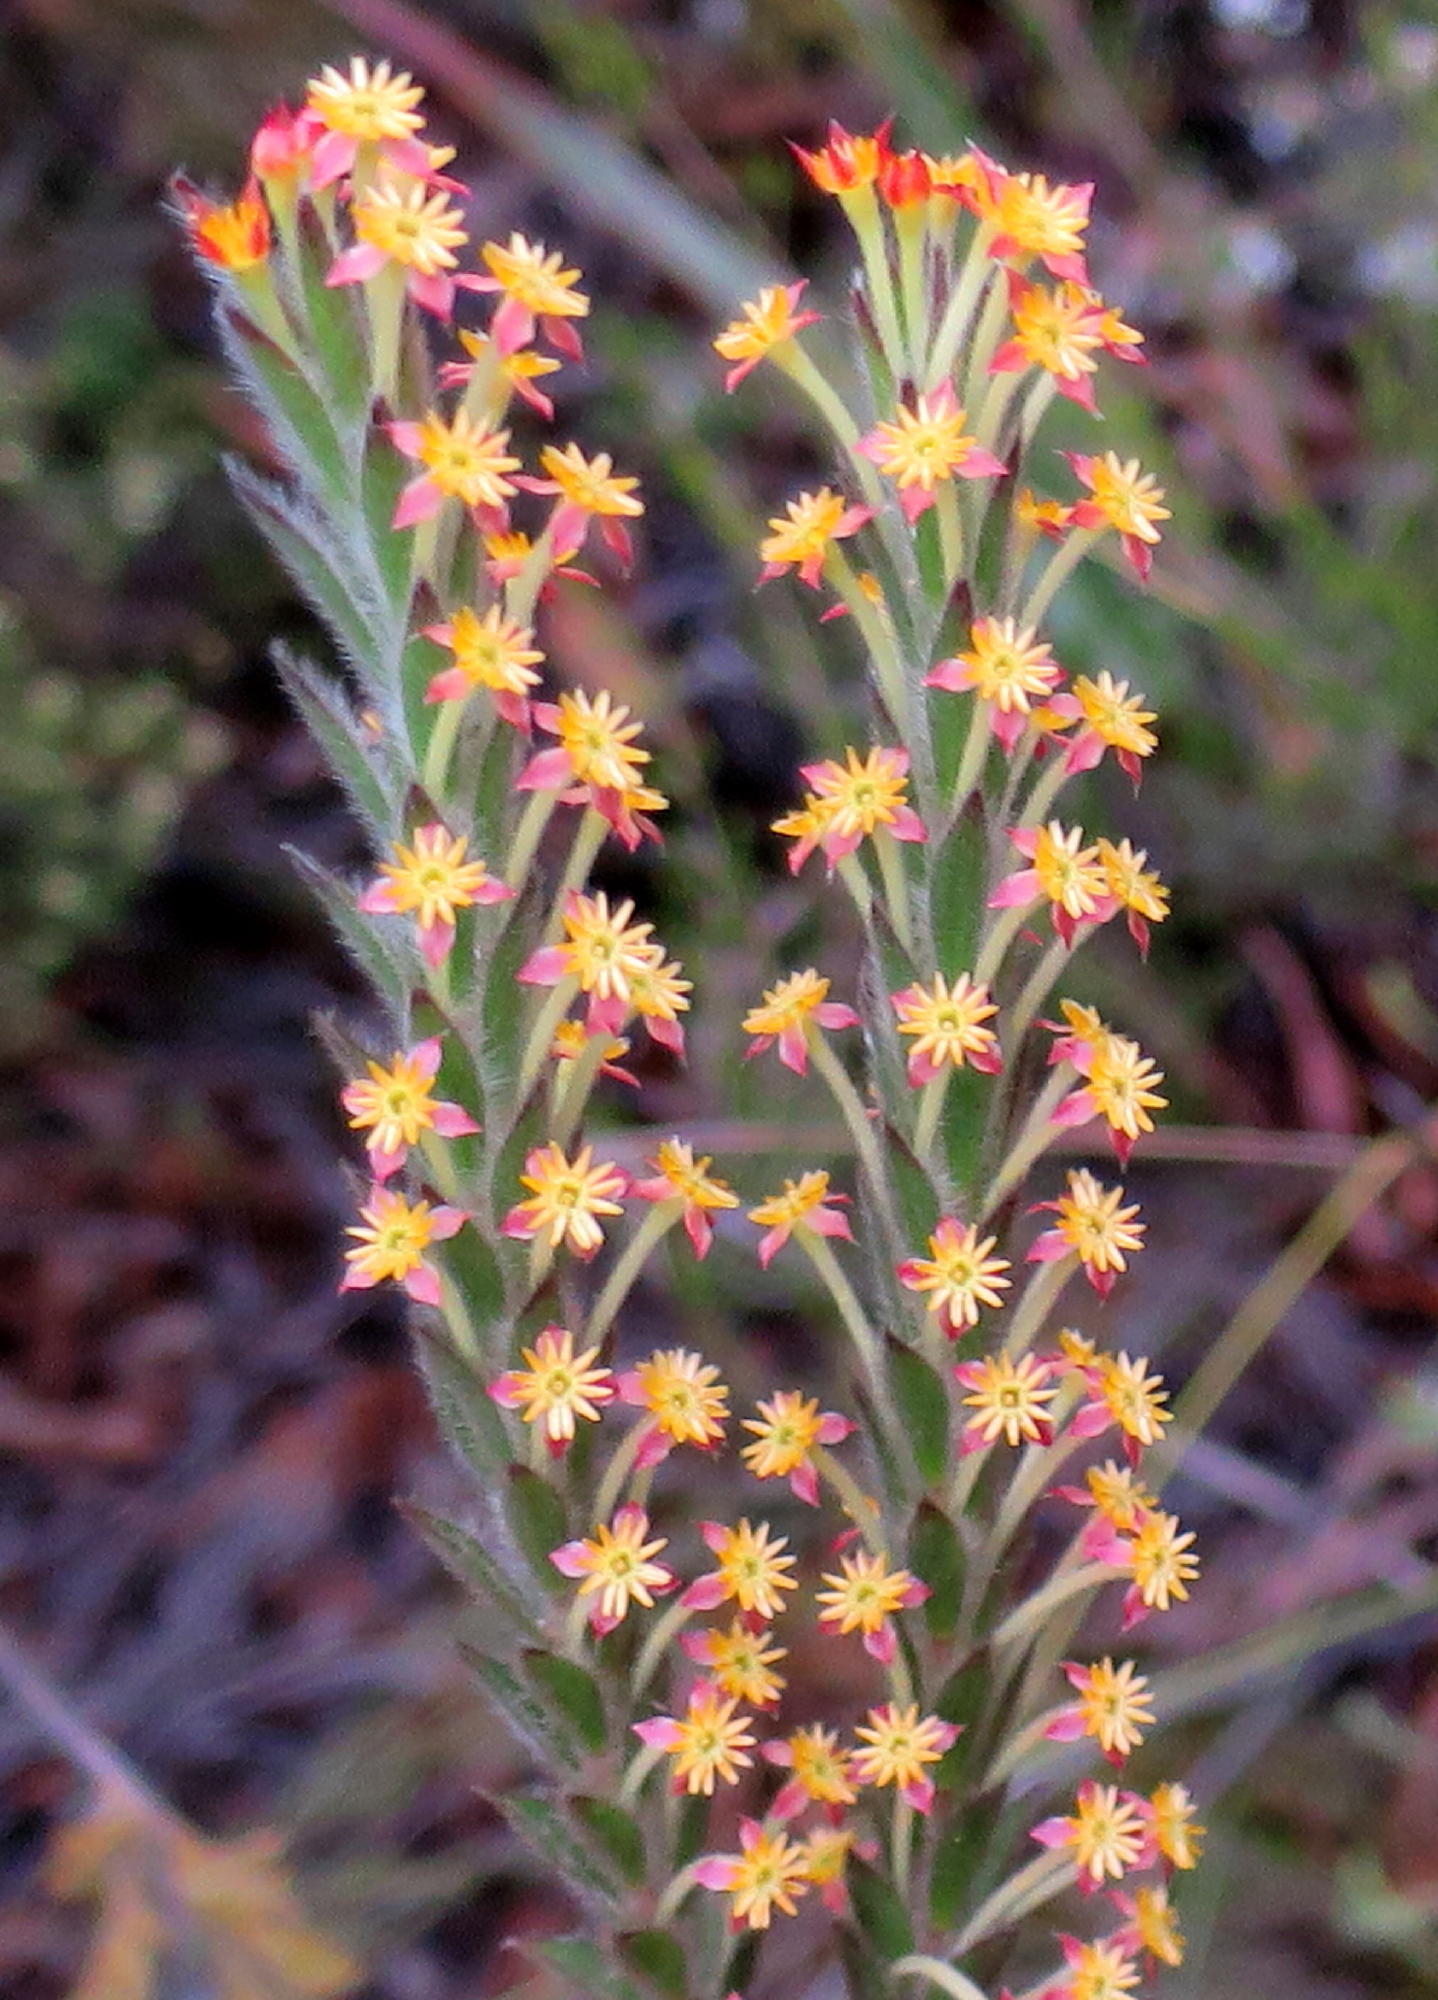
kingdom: Plantae
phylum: Tracheophyta
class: Magnoliopsida
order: Malvales
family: Thymelaeaceae
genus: Struthiola
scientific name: Struthiola tomentosa
